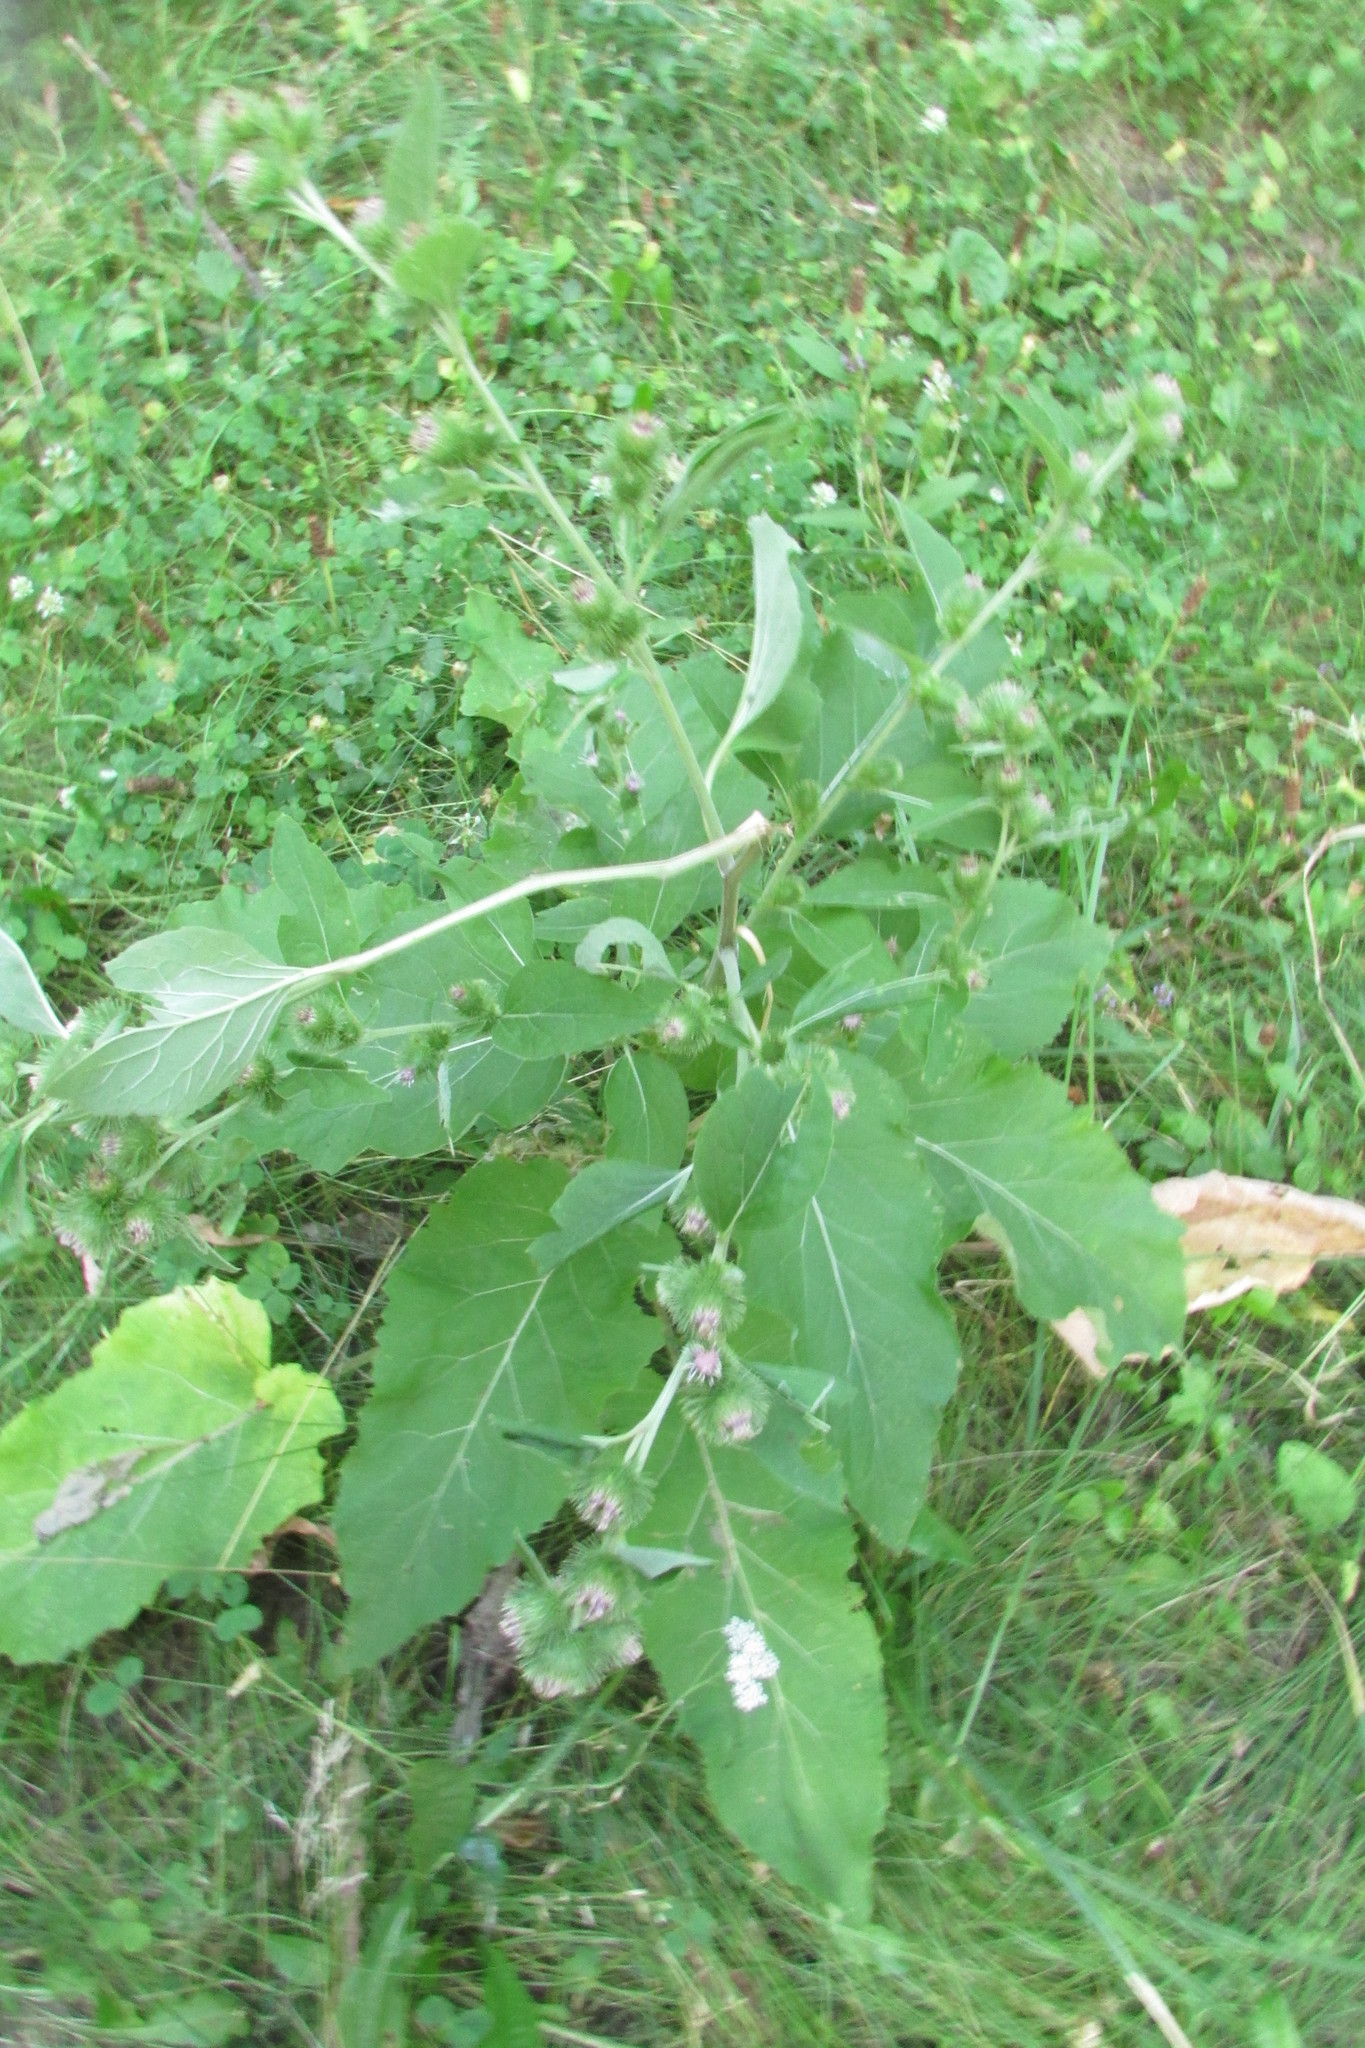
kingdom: Plantae
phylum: Tracheophyta
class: Magnoliopsida
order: Asterales
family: Asteraceae
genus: Arctium
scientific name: Arctium minus
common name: Lesser burdock
